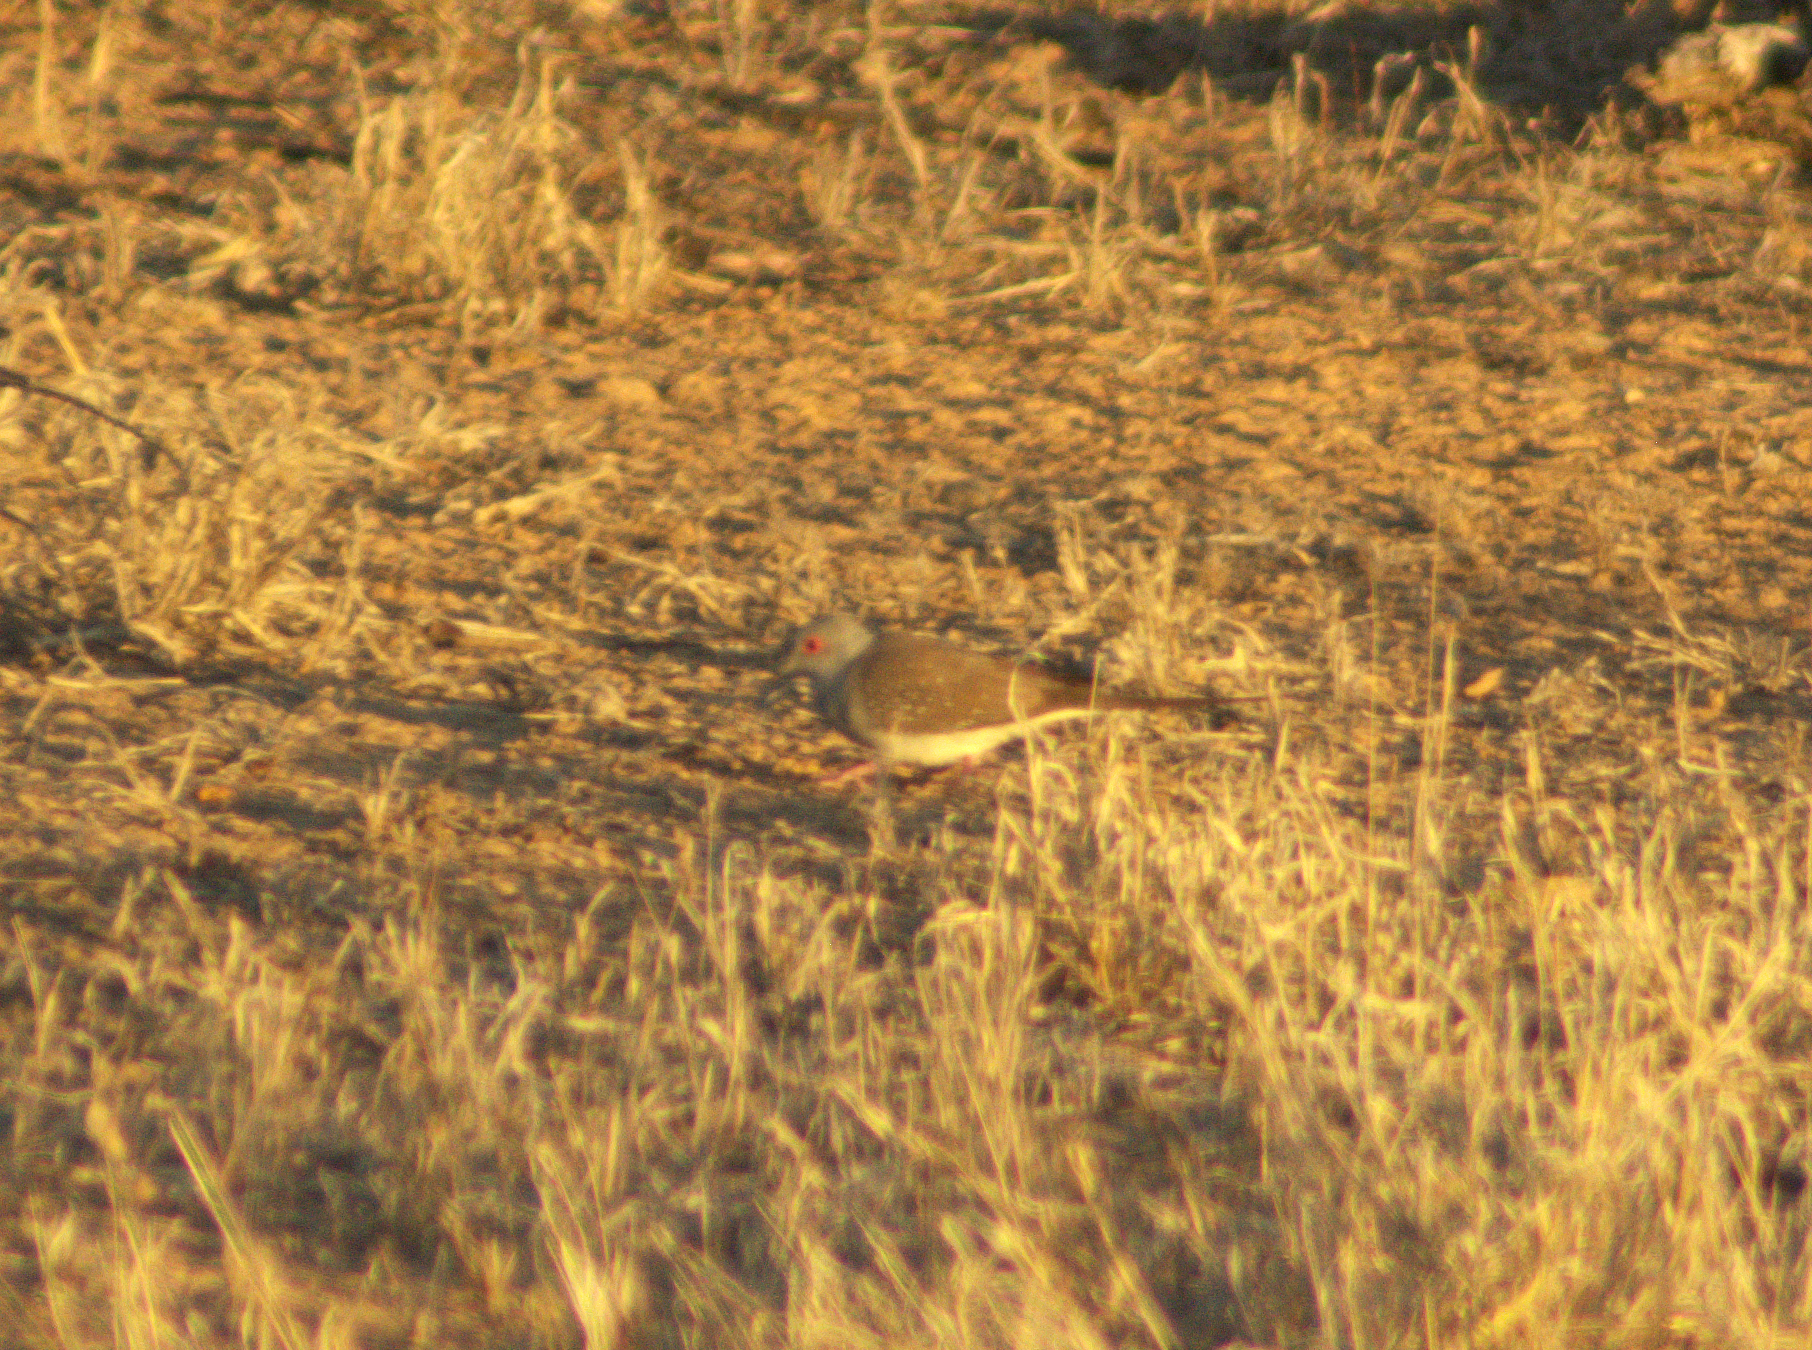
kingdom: Animalia
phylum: Chordata
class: Aves
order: Columbiformes
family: Columbidae
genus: Geopelia
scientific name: Geopelia cuneata
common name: Diamond dove
